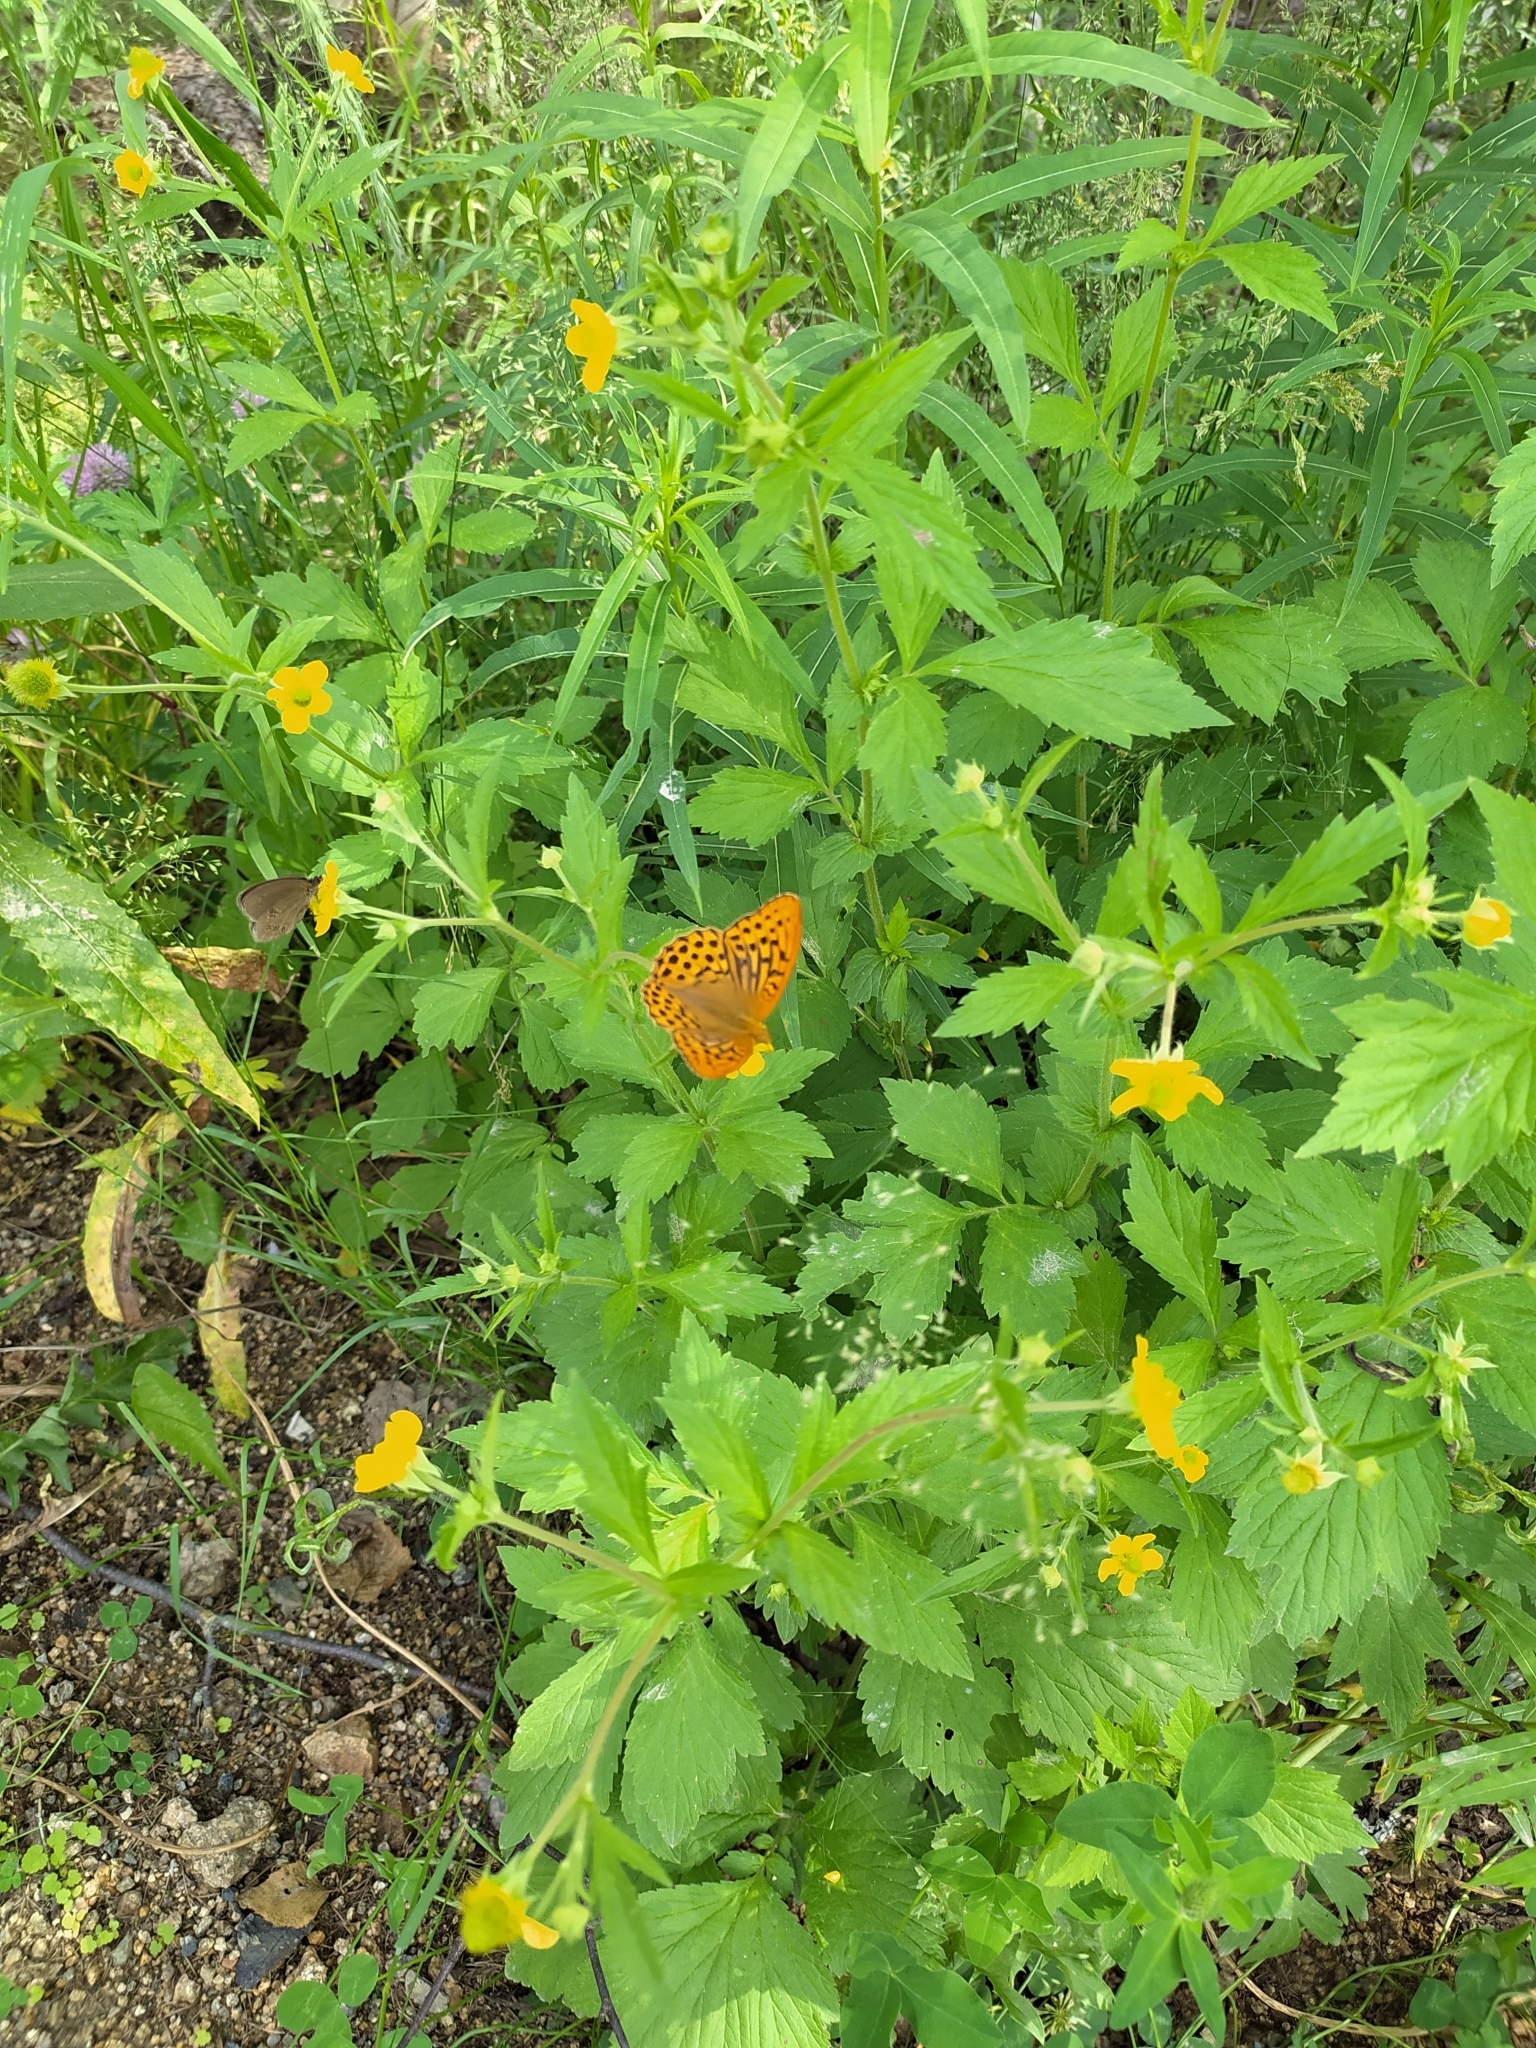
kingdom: Animalia
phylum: Arthropoda
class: Insecta
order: Lepidoptera
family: Nymphalidae
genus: Argynnis
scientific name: Argynnis paphia
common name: Silver-washed fritillary
